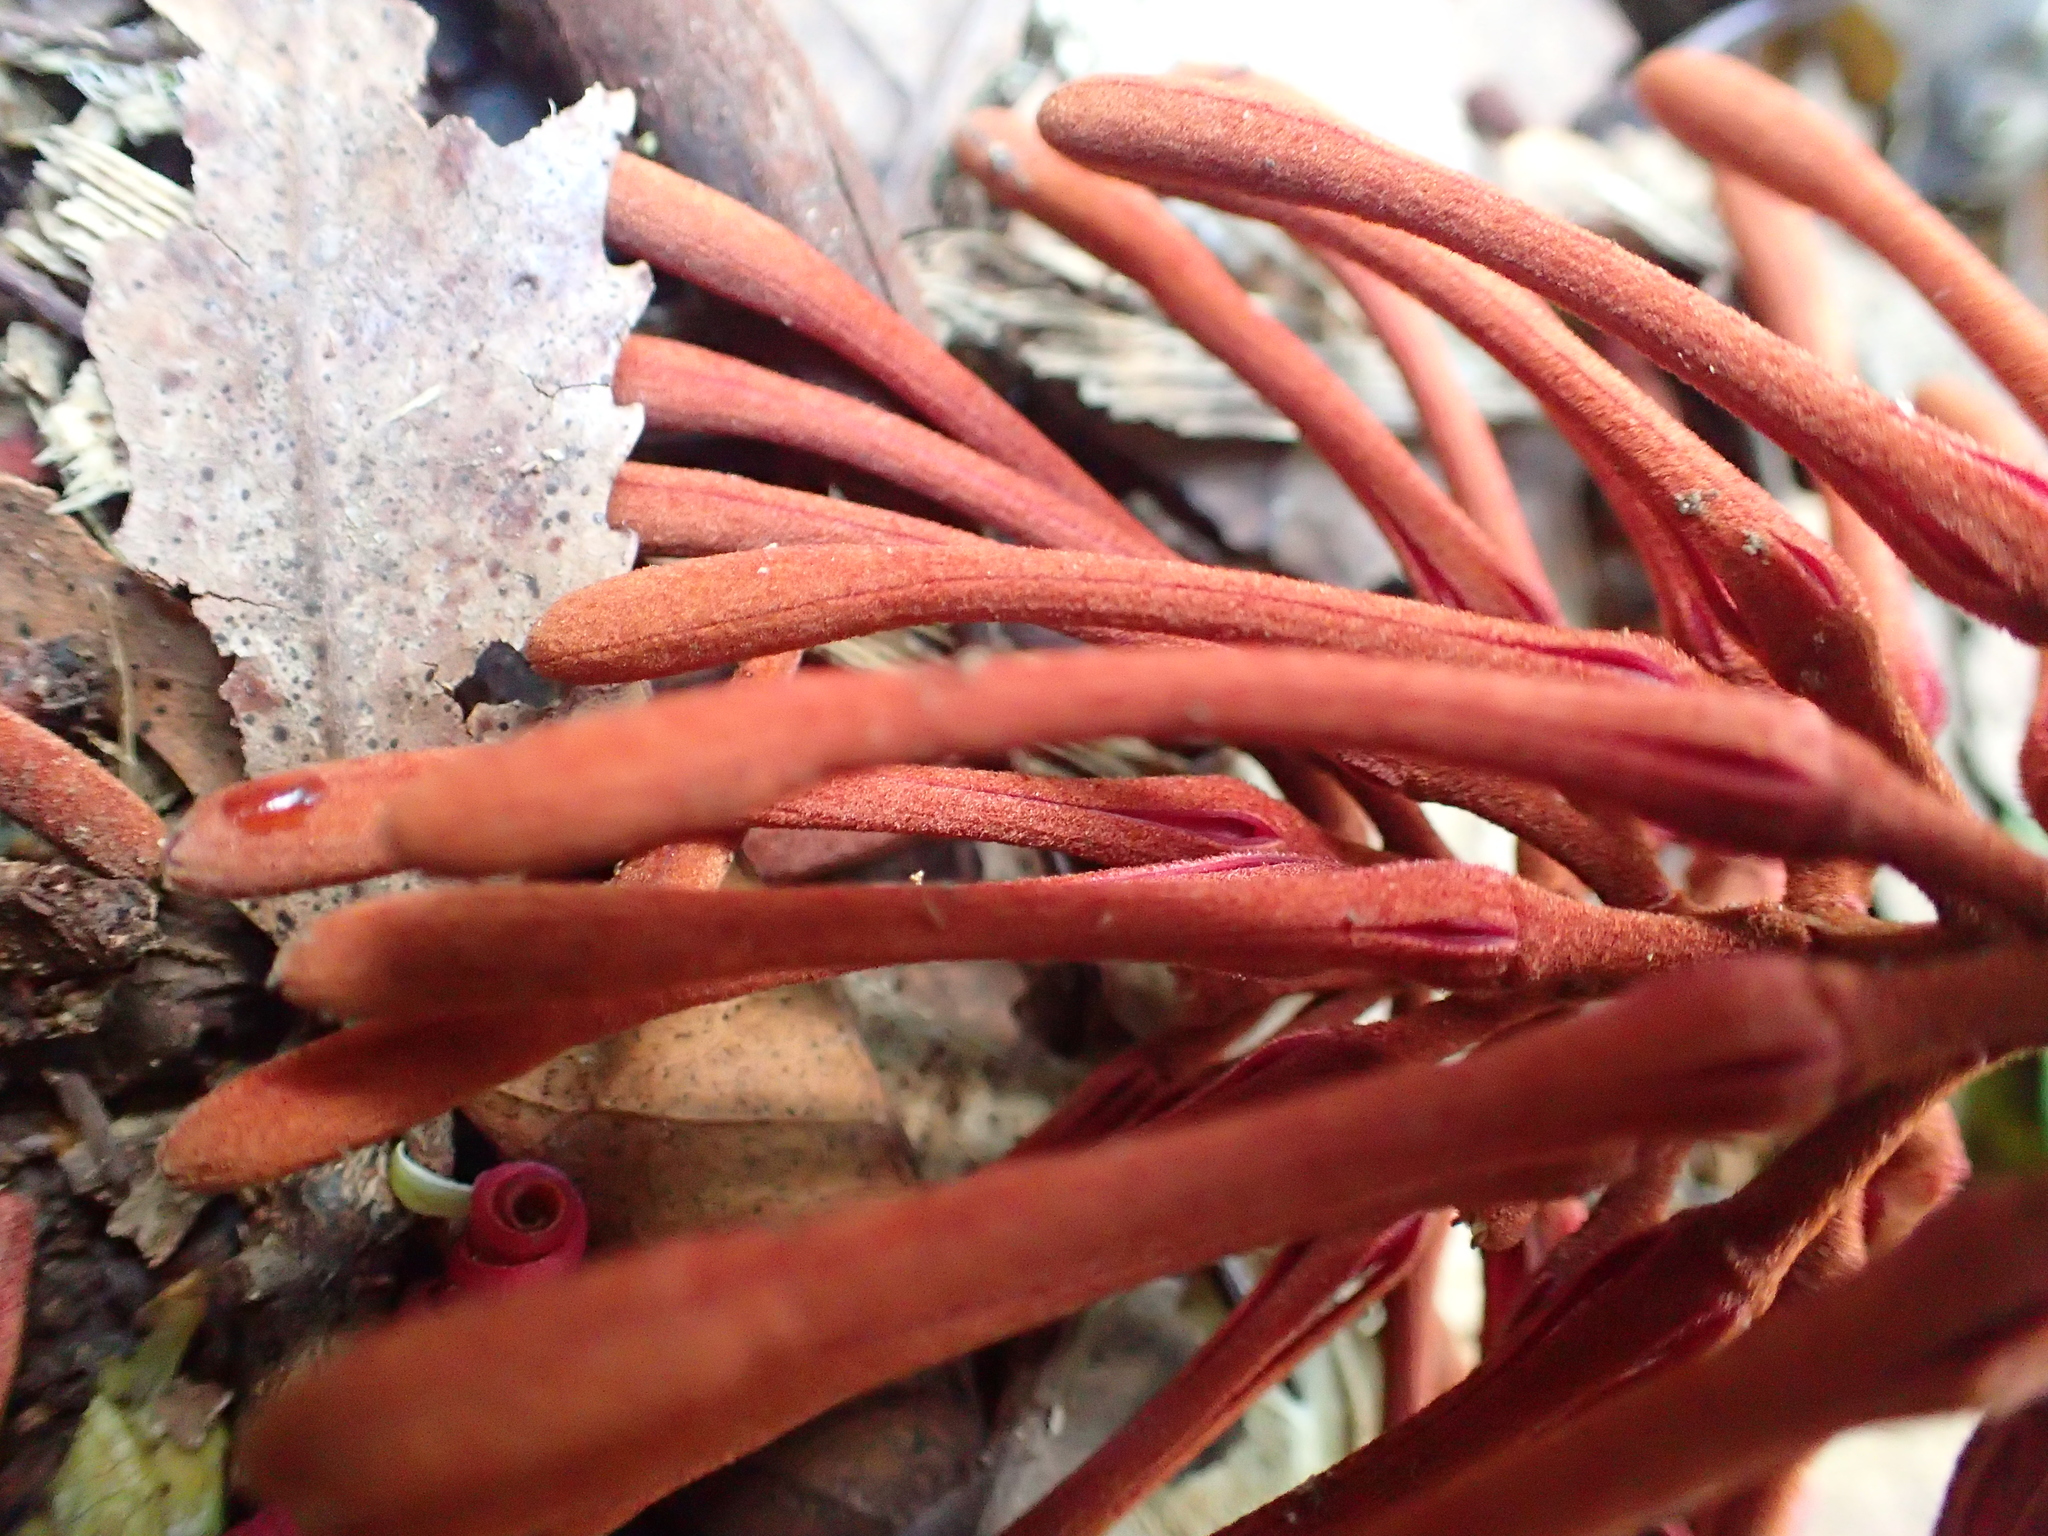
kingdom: Plantae
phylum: Tracheophyta
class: Magnoliopsida
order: Proteales
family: Proteaceae
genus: Knightia
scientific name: Knightia excelsa
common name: New zealand-honeysuckle
